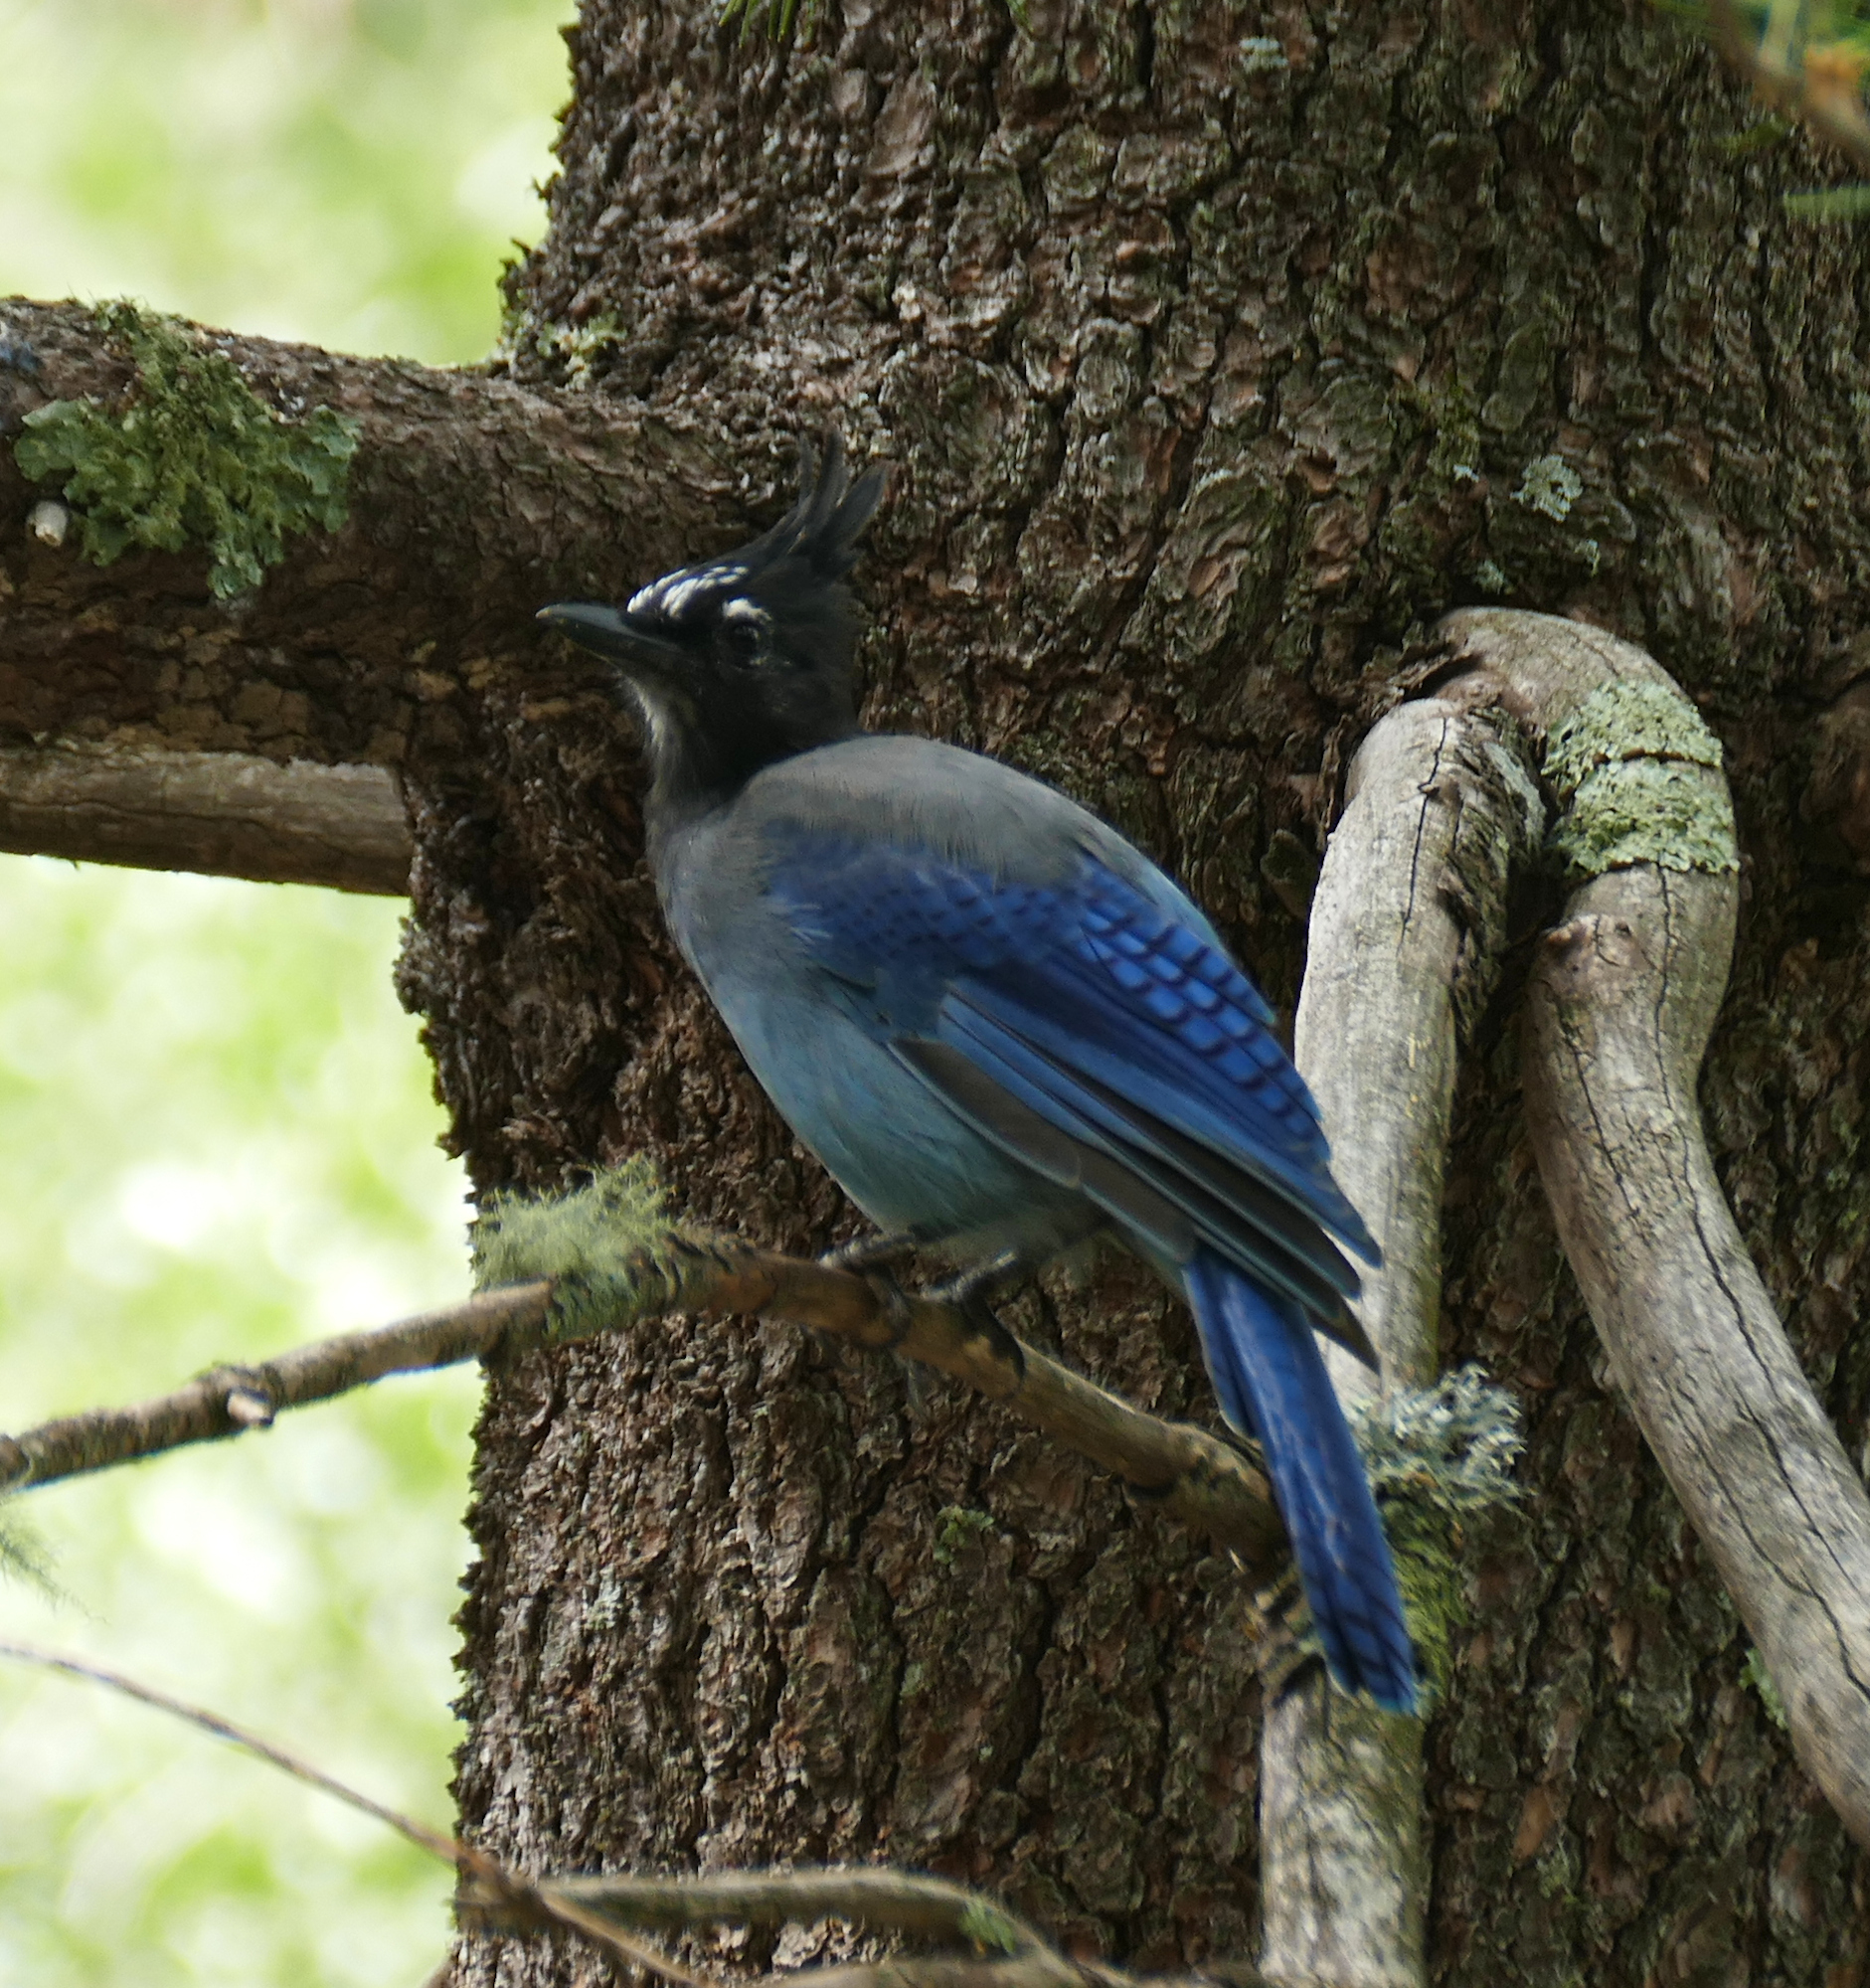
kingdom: Animalia
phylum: Chordata
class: Aves
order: Passeriformes
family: Corvidae
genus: Cyanocitta
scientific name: Cyanocitta stelleri
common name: Steller's jay
